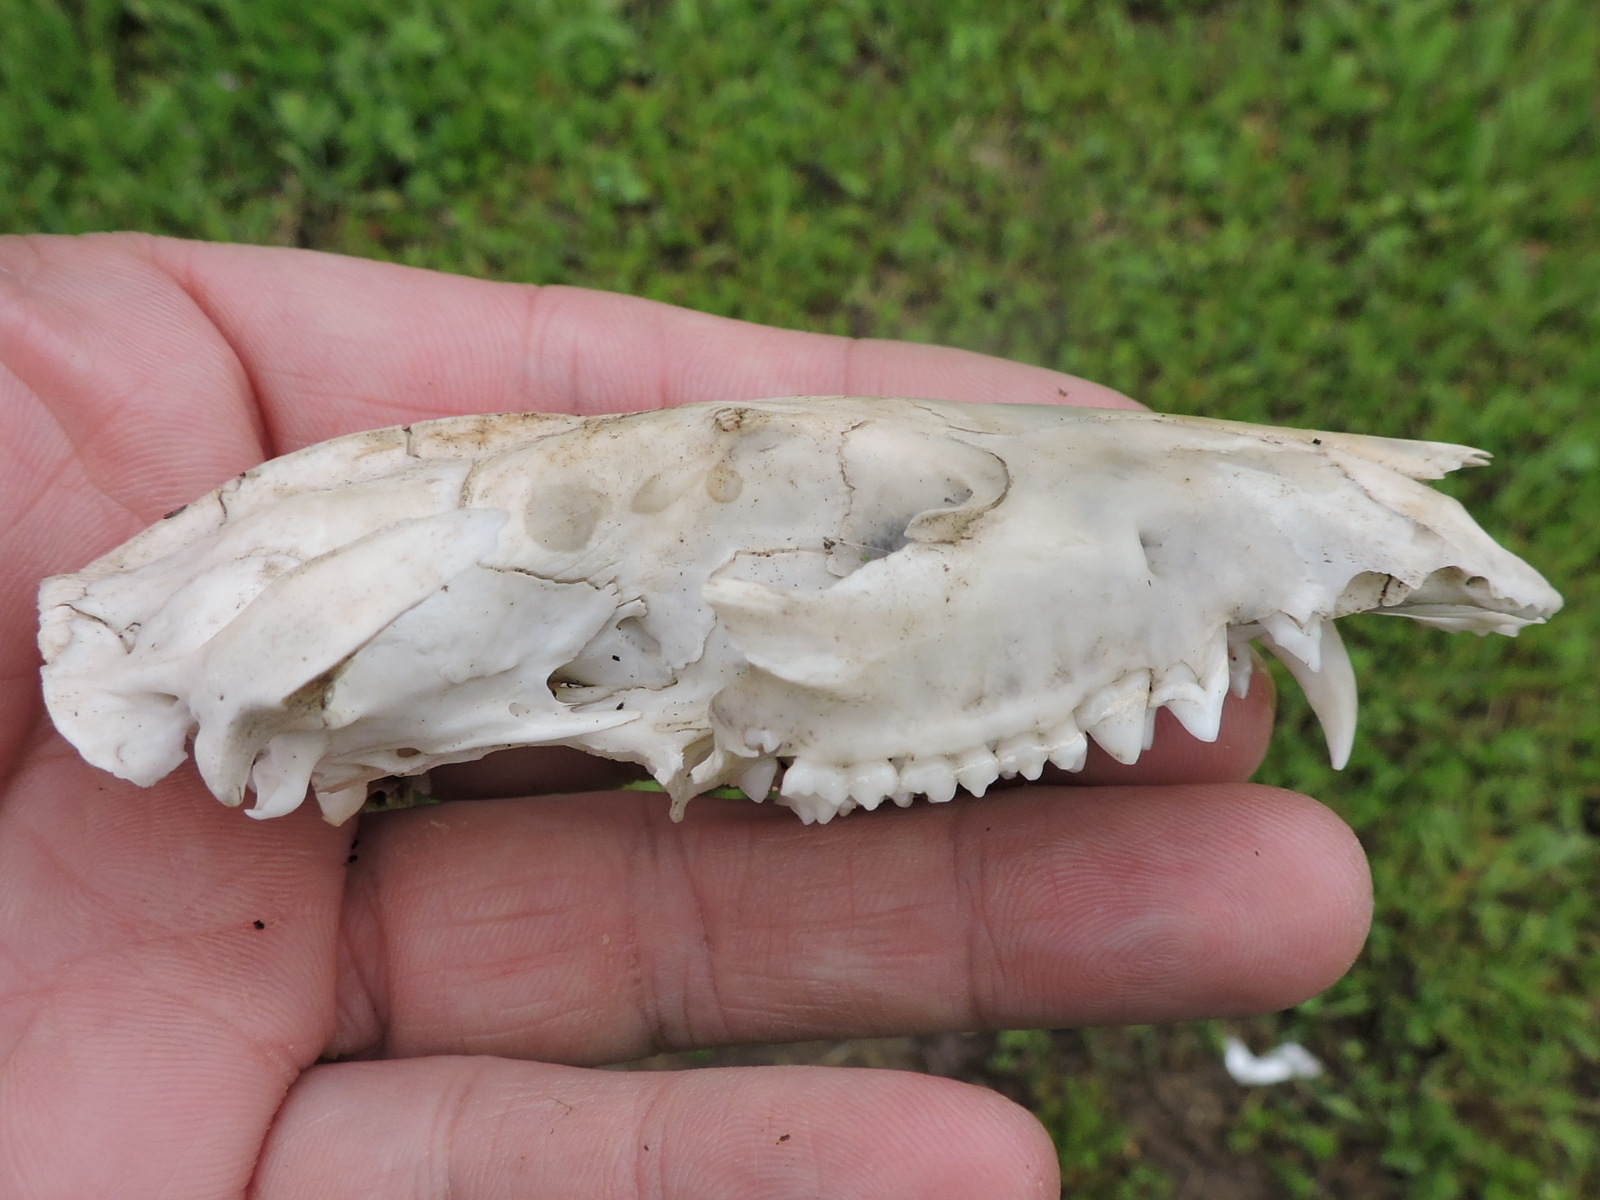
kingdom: Animalia
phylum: Chordata
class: Mammalia
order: Didelphimorphia
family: Didelphidae
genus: Didelphis
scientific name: Didelphis virginiana
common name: Virginia opossum
